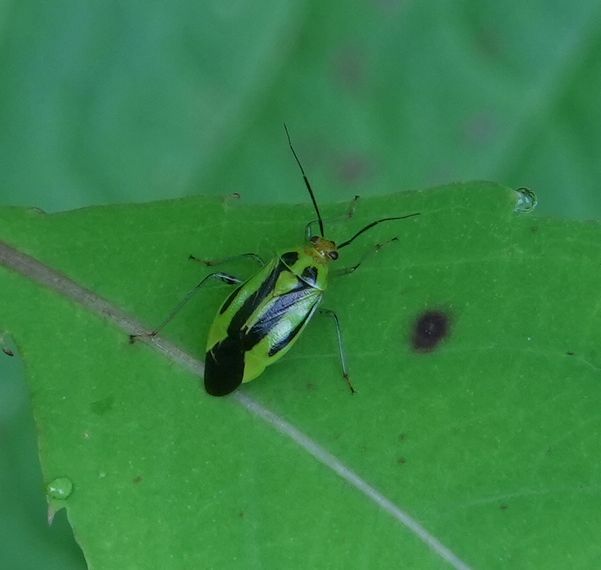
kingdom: Animalia
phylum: Arthropoda
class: Insecta
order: Hemiptera
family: Miridae
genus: Poecilocapsus
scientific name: Poecilocapsus lineatus
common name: Four-lined plant bug
